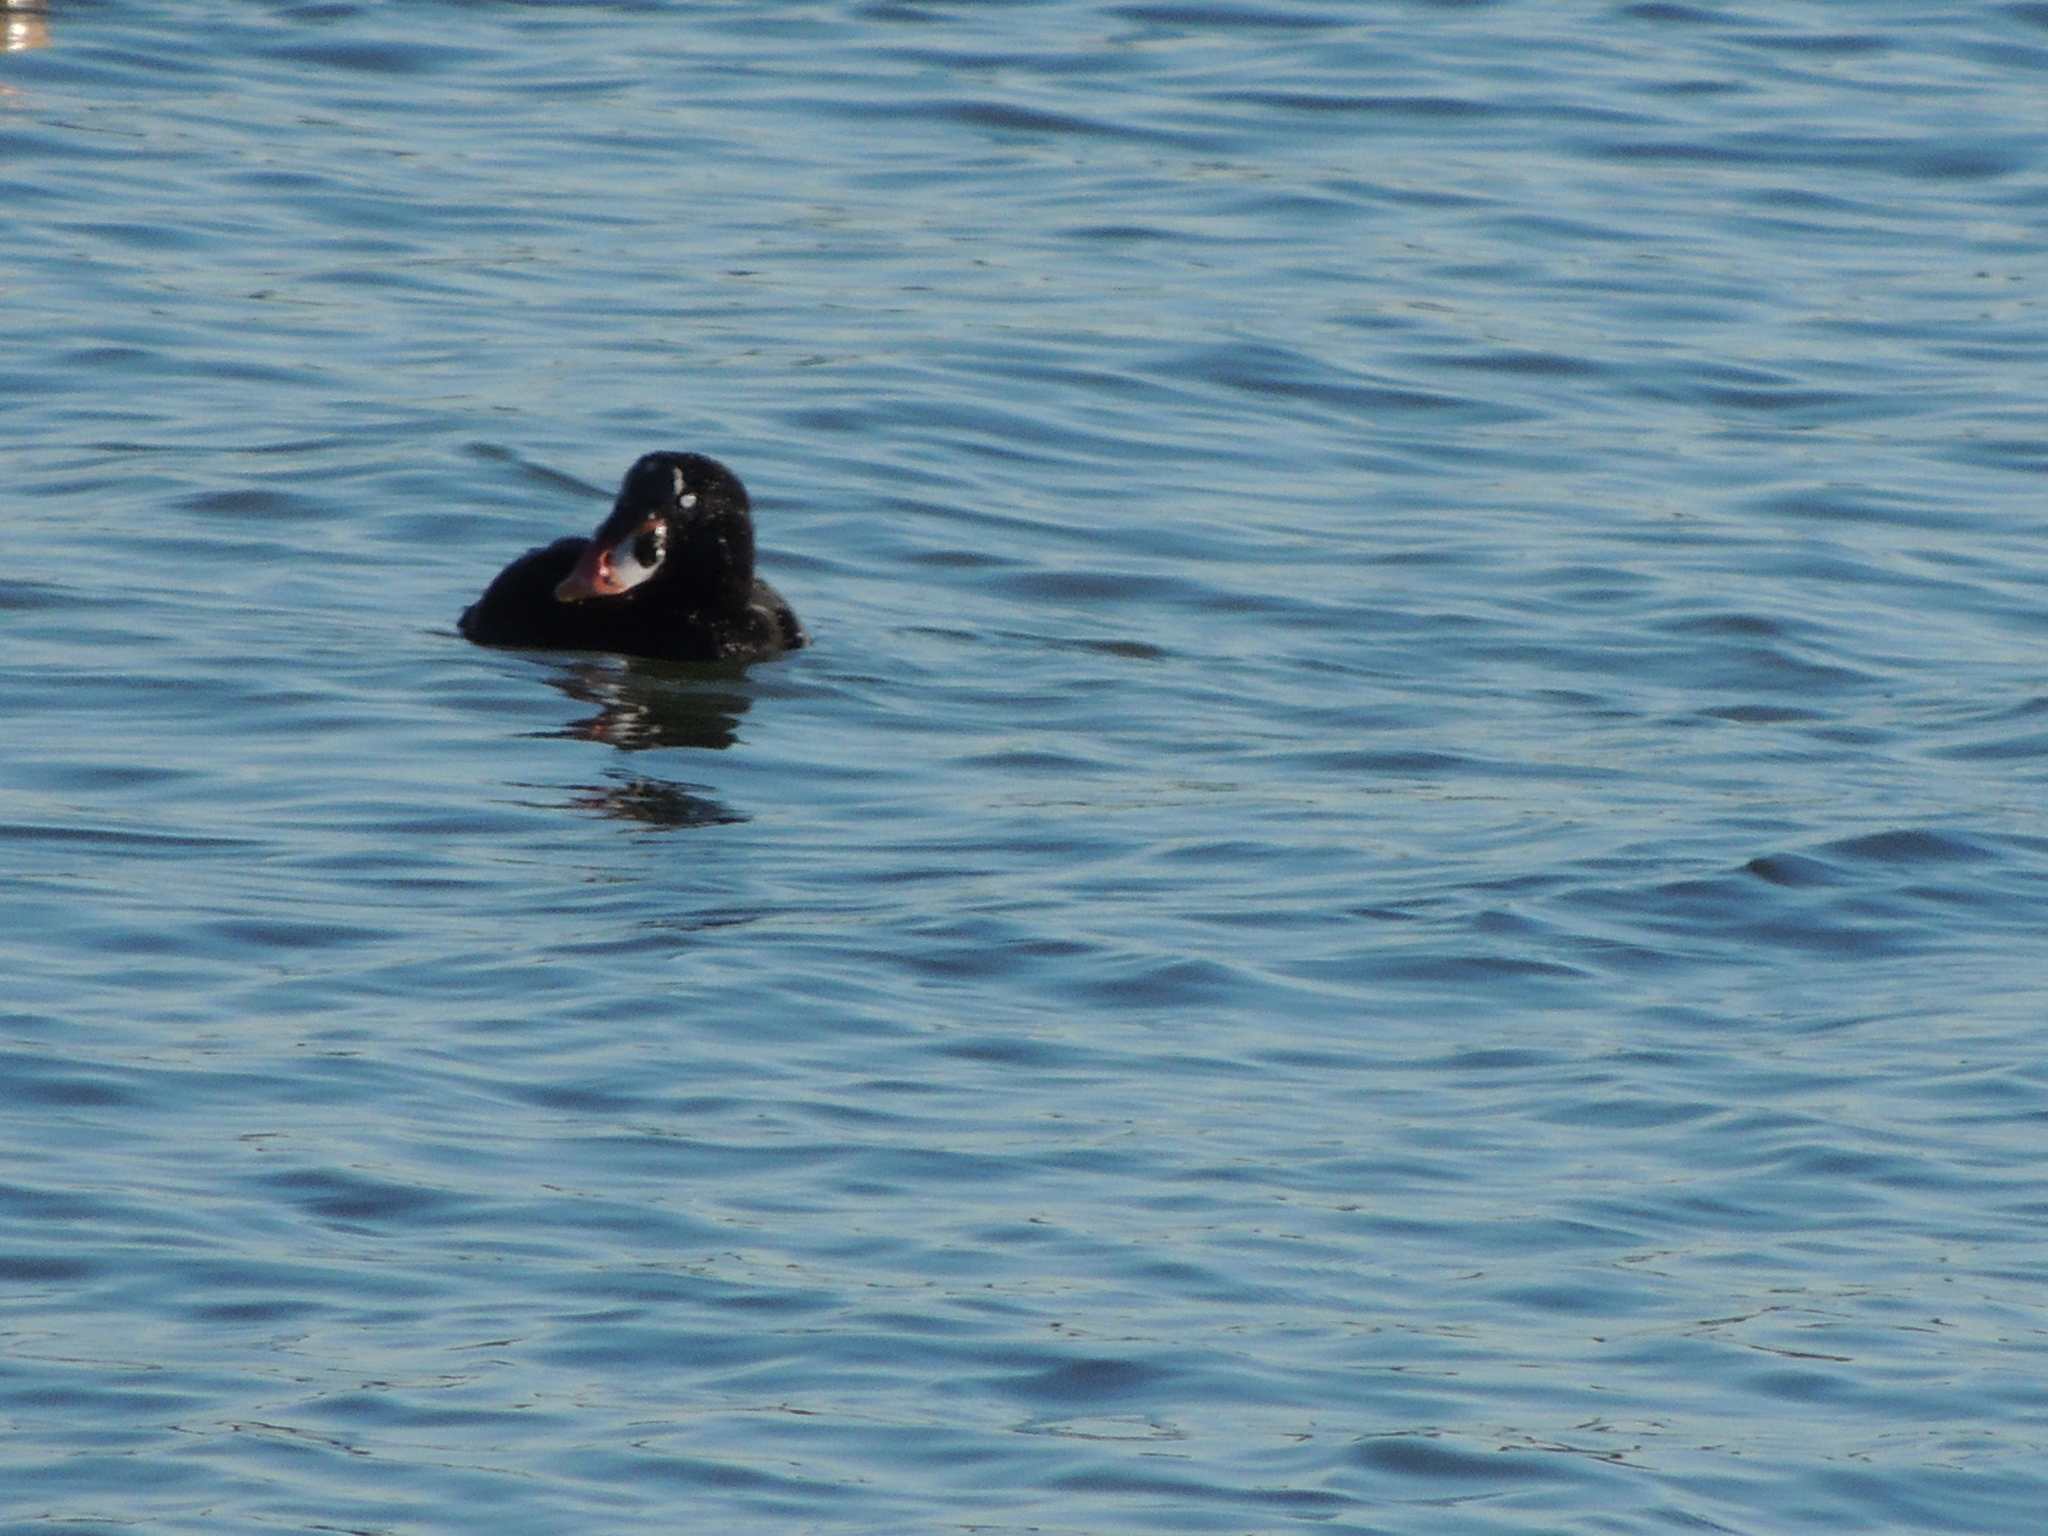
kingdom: Animalia
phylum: Chordata
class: Aves
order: Anseriformes
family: Anatidae
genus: Melanitta
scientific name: Melanitta perspicillata
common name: Surf scoter
